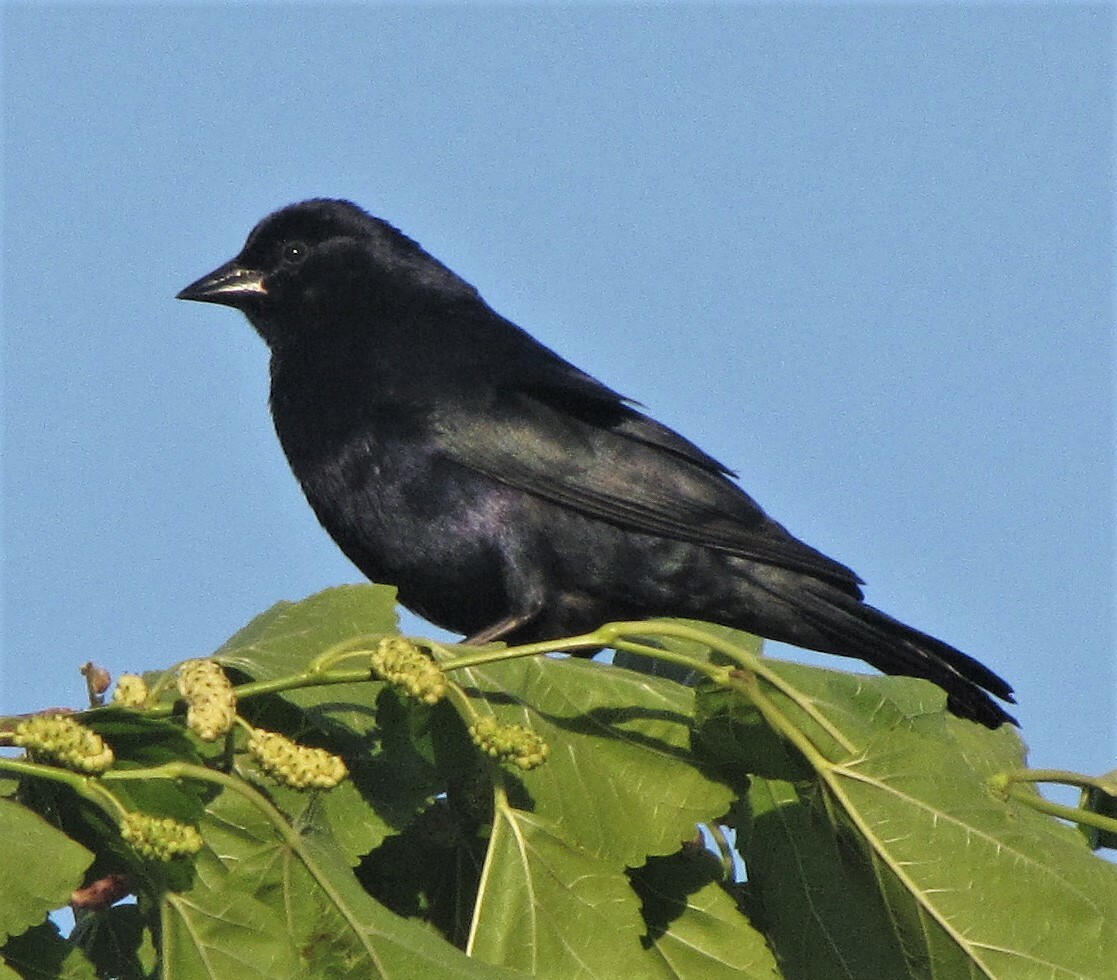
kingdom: Animalia
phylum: Chordata
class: Aves
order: Passeriformes
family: Icteridae
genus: Molothrus
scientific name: Molothrus bonariensis
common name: Shiny cowbird
